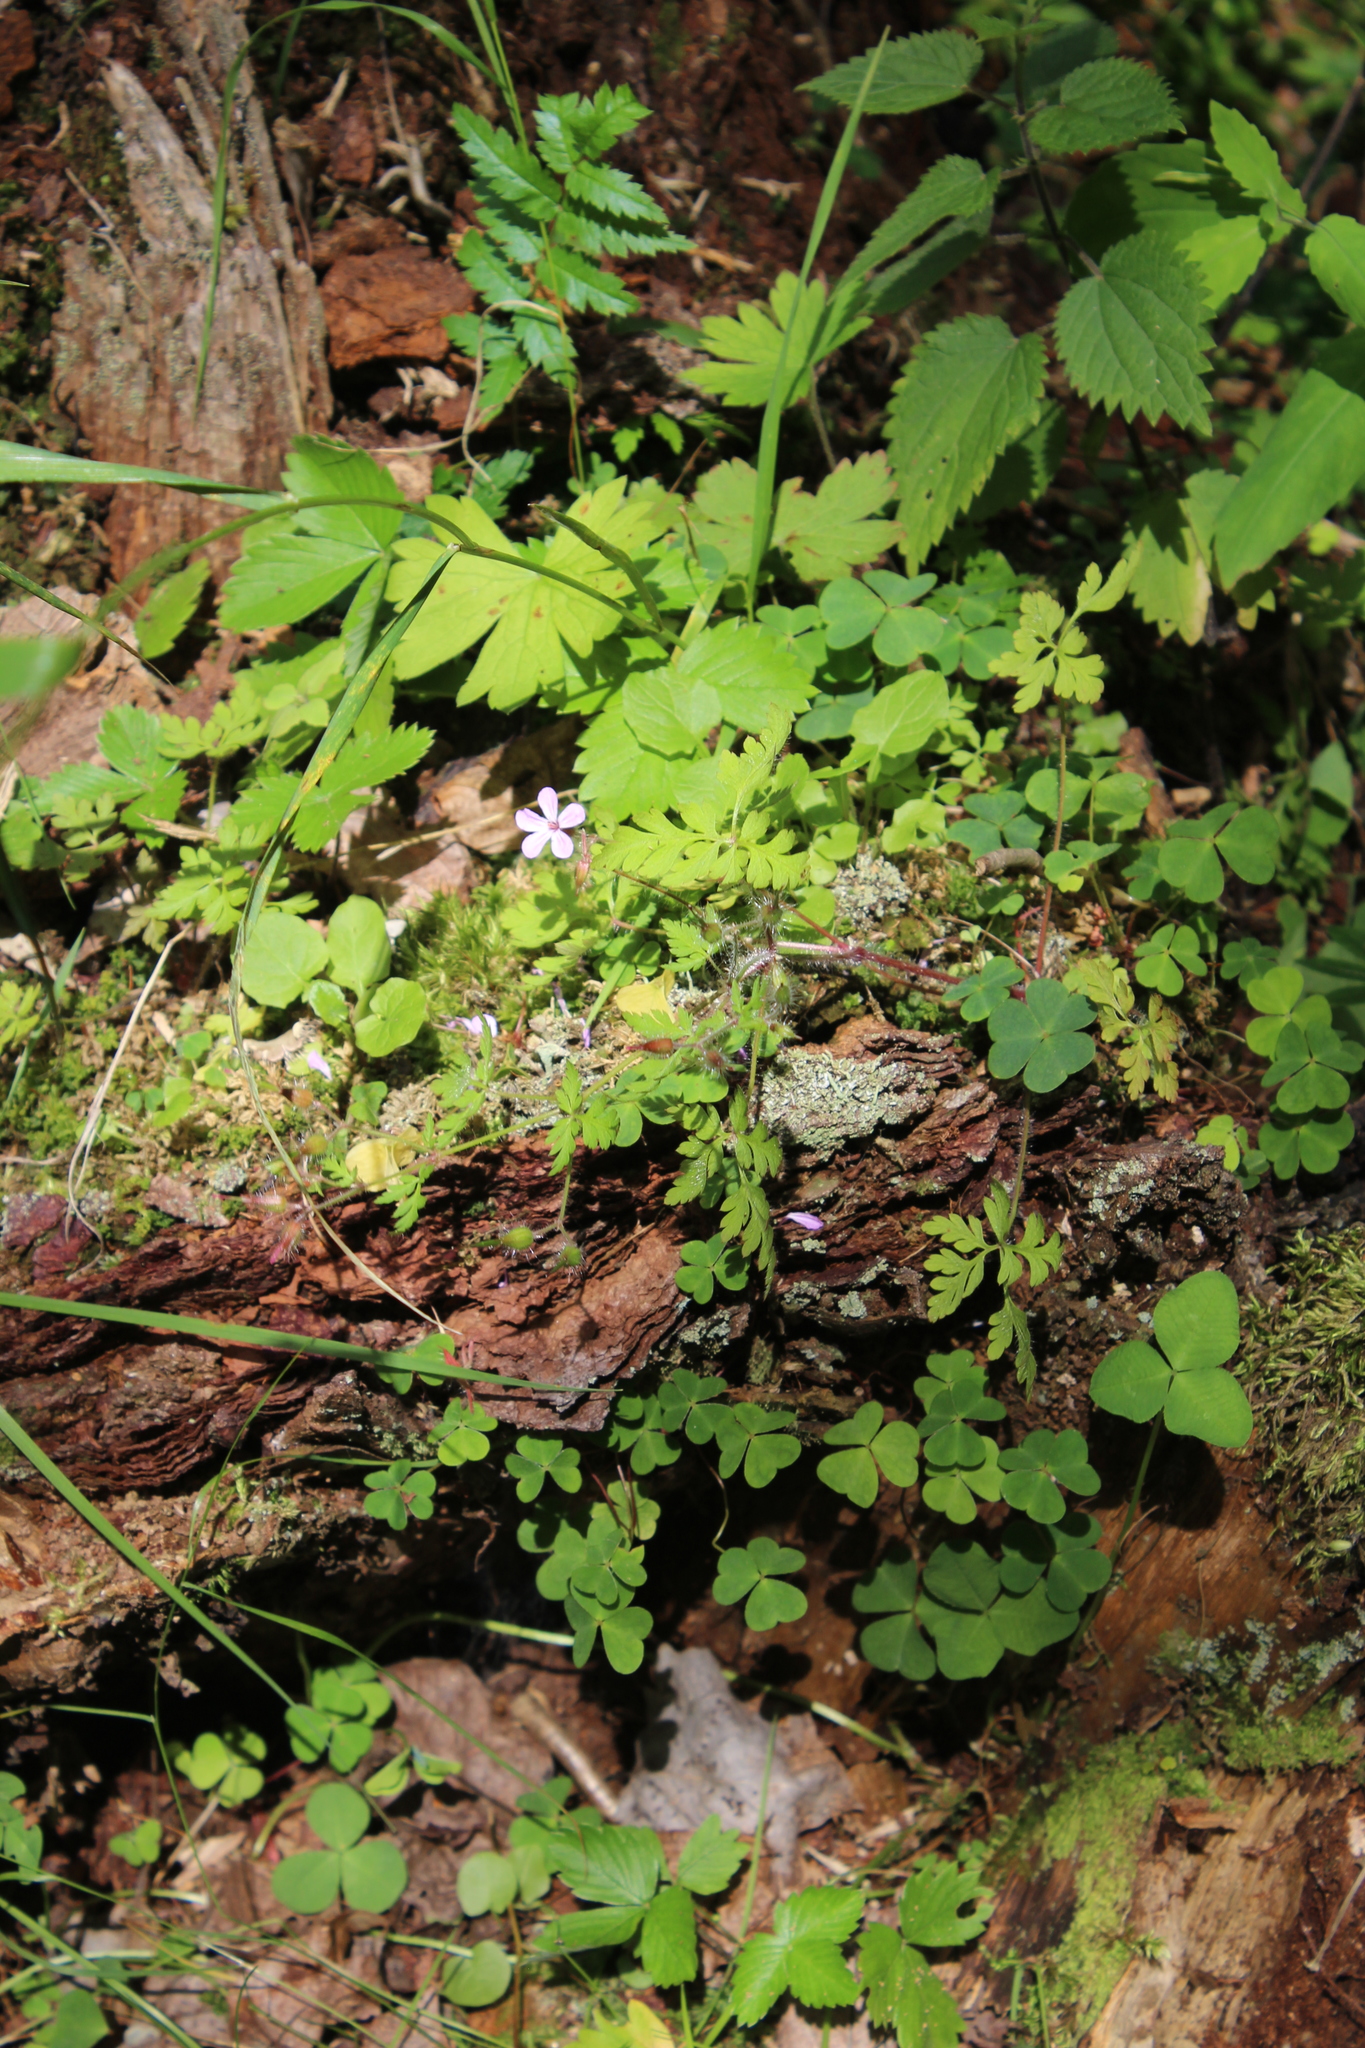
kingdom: Plantae
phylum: Tracheophyta
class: Magnoliopsida
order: Geraniales
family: Geraniaceae
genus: Geranium
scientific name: Geranium robertianum
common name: Herb-robert
